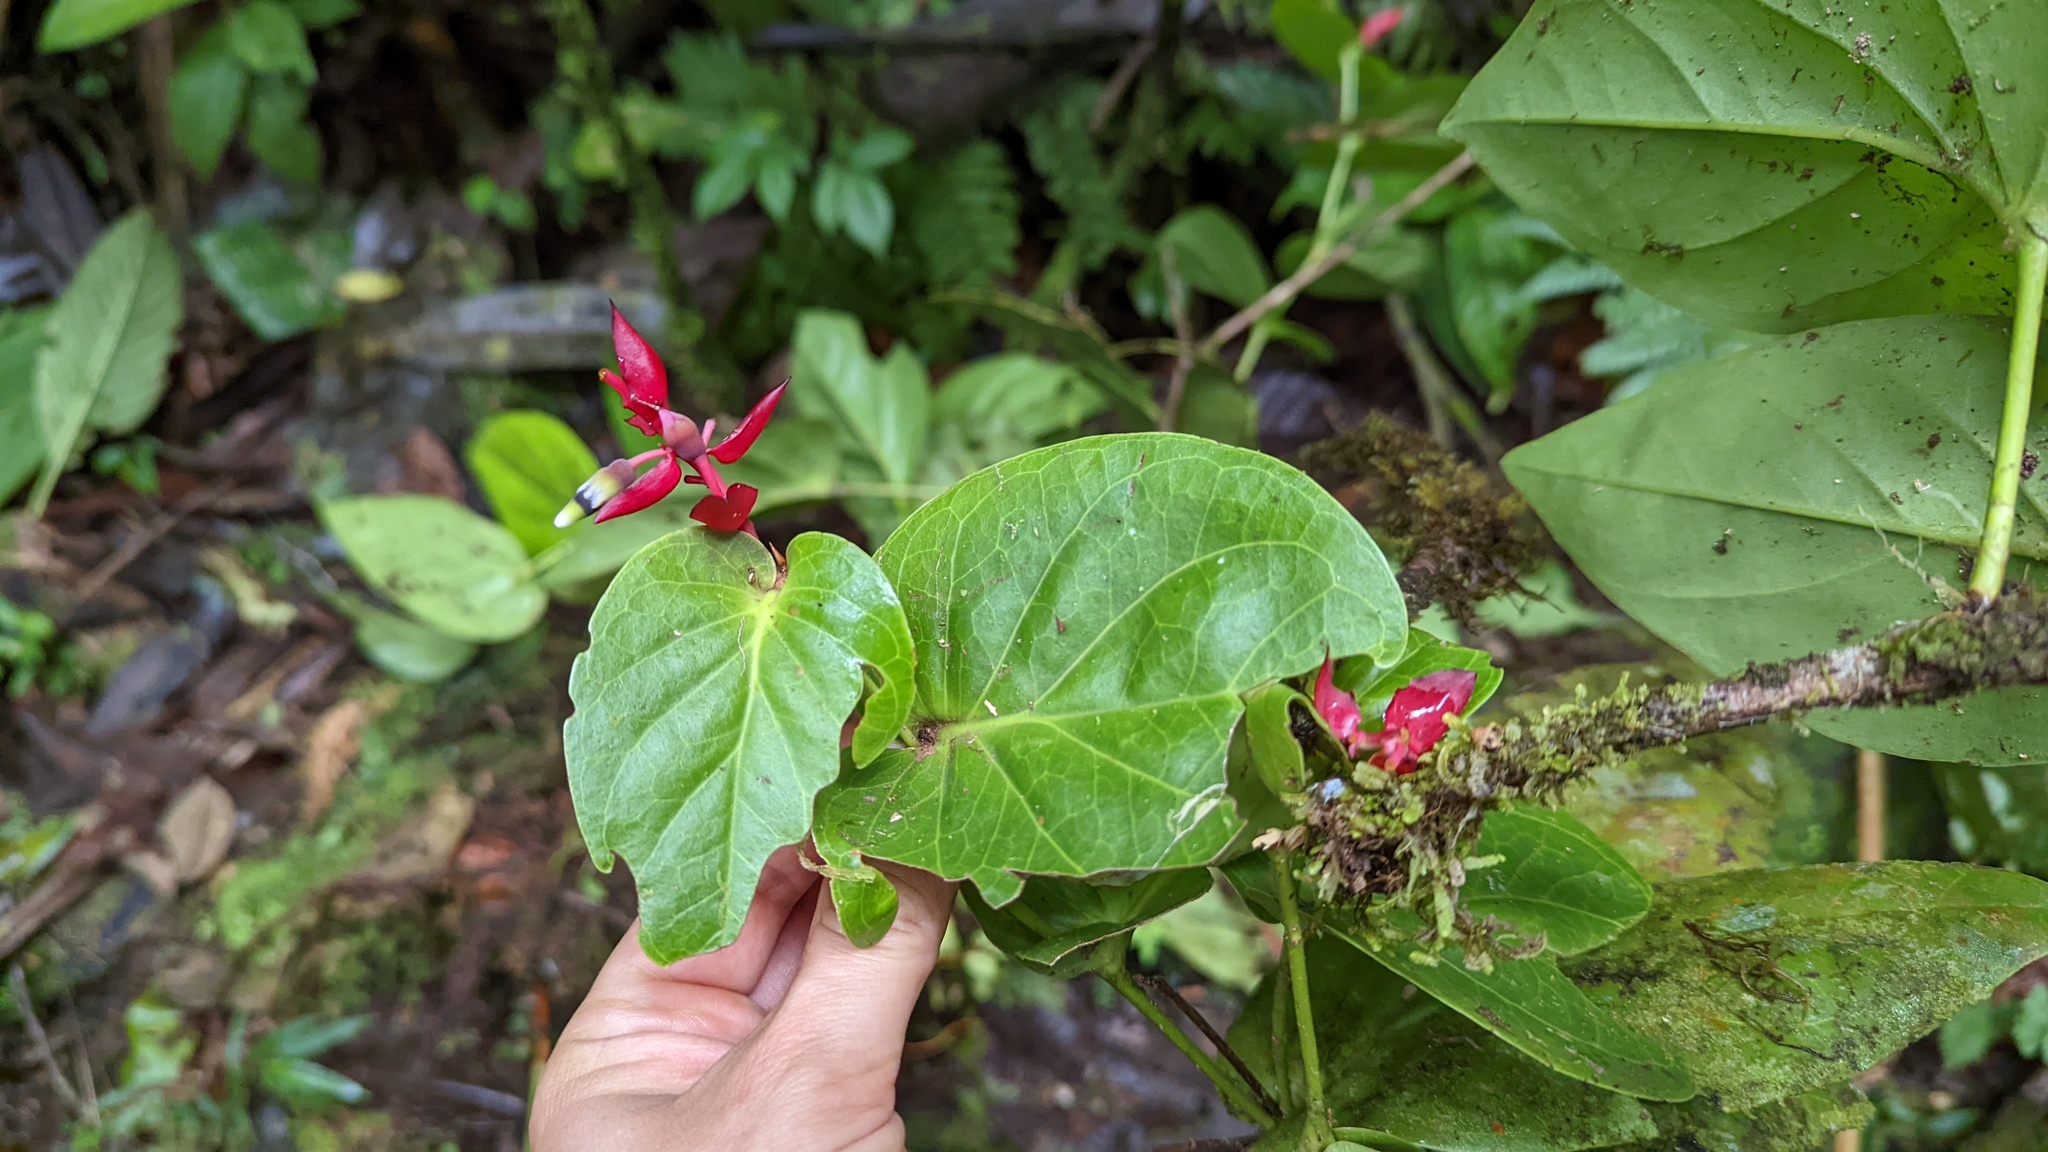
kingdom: Plantae
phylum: Tracheophyta
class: Magnoliopsida
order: Ericales
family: Ericaceae
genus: Cavendishia
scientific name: Cavendishia complectens
